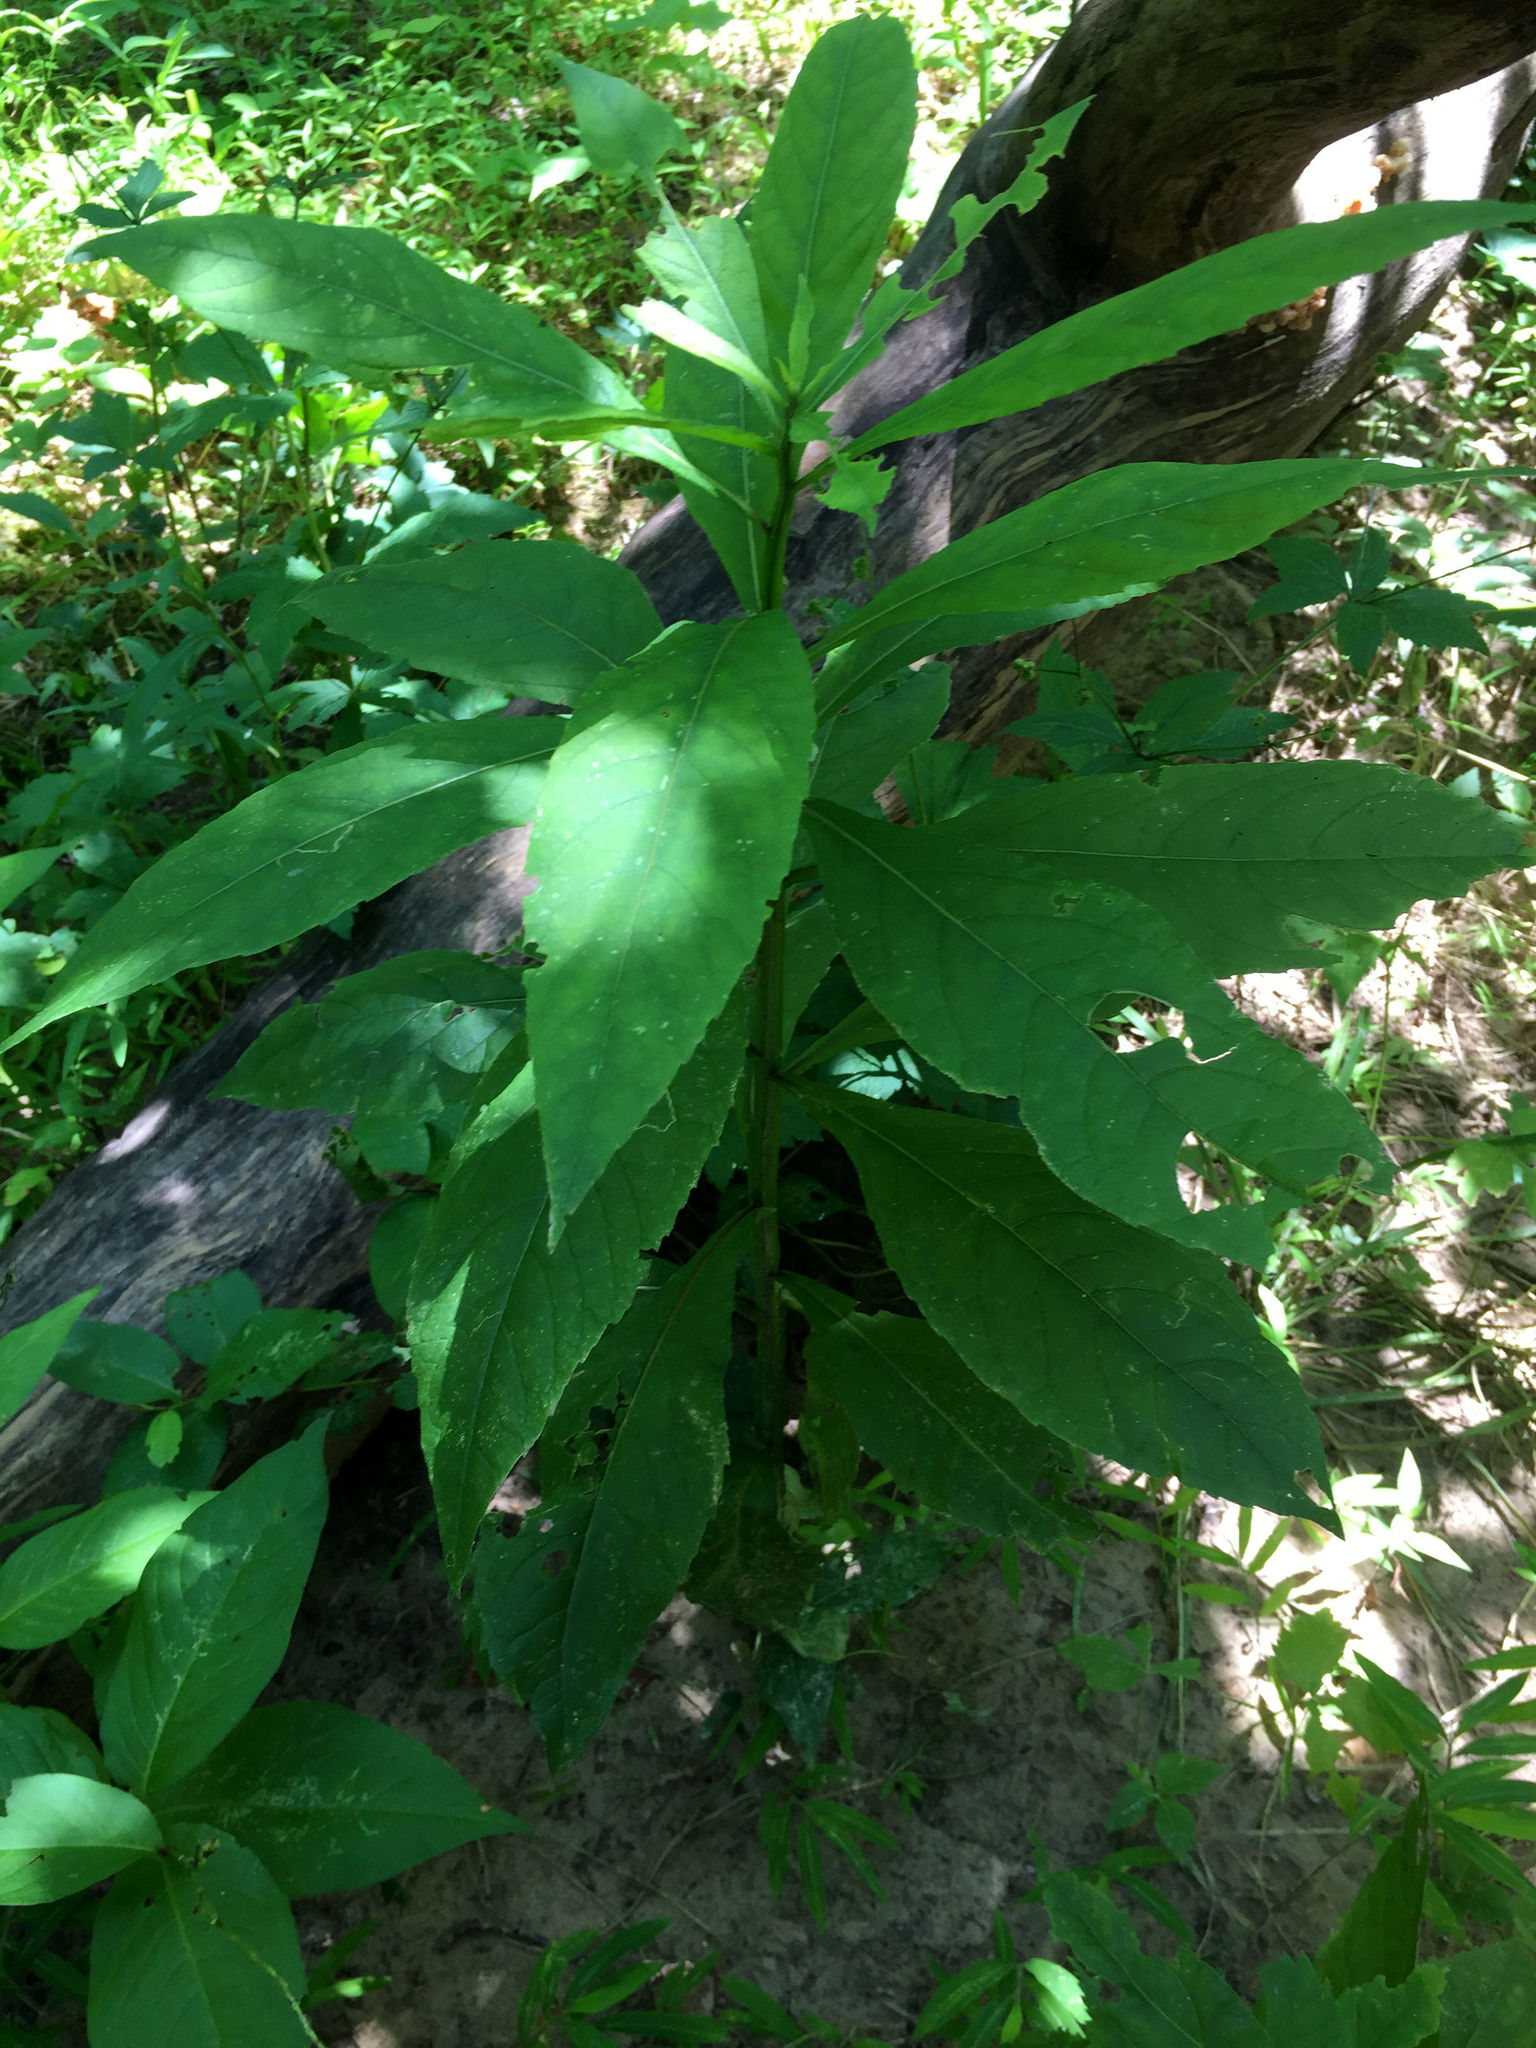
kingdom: Plantae
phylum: Tracheophyta
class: Magnoliopsida
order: Asterales
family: Asteraceae
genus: Verbesina
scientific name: Verbesina alternifolia
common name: Wingstem
